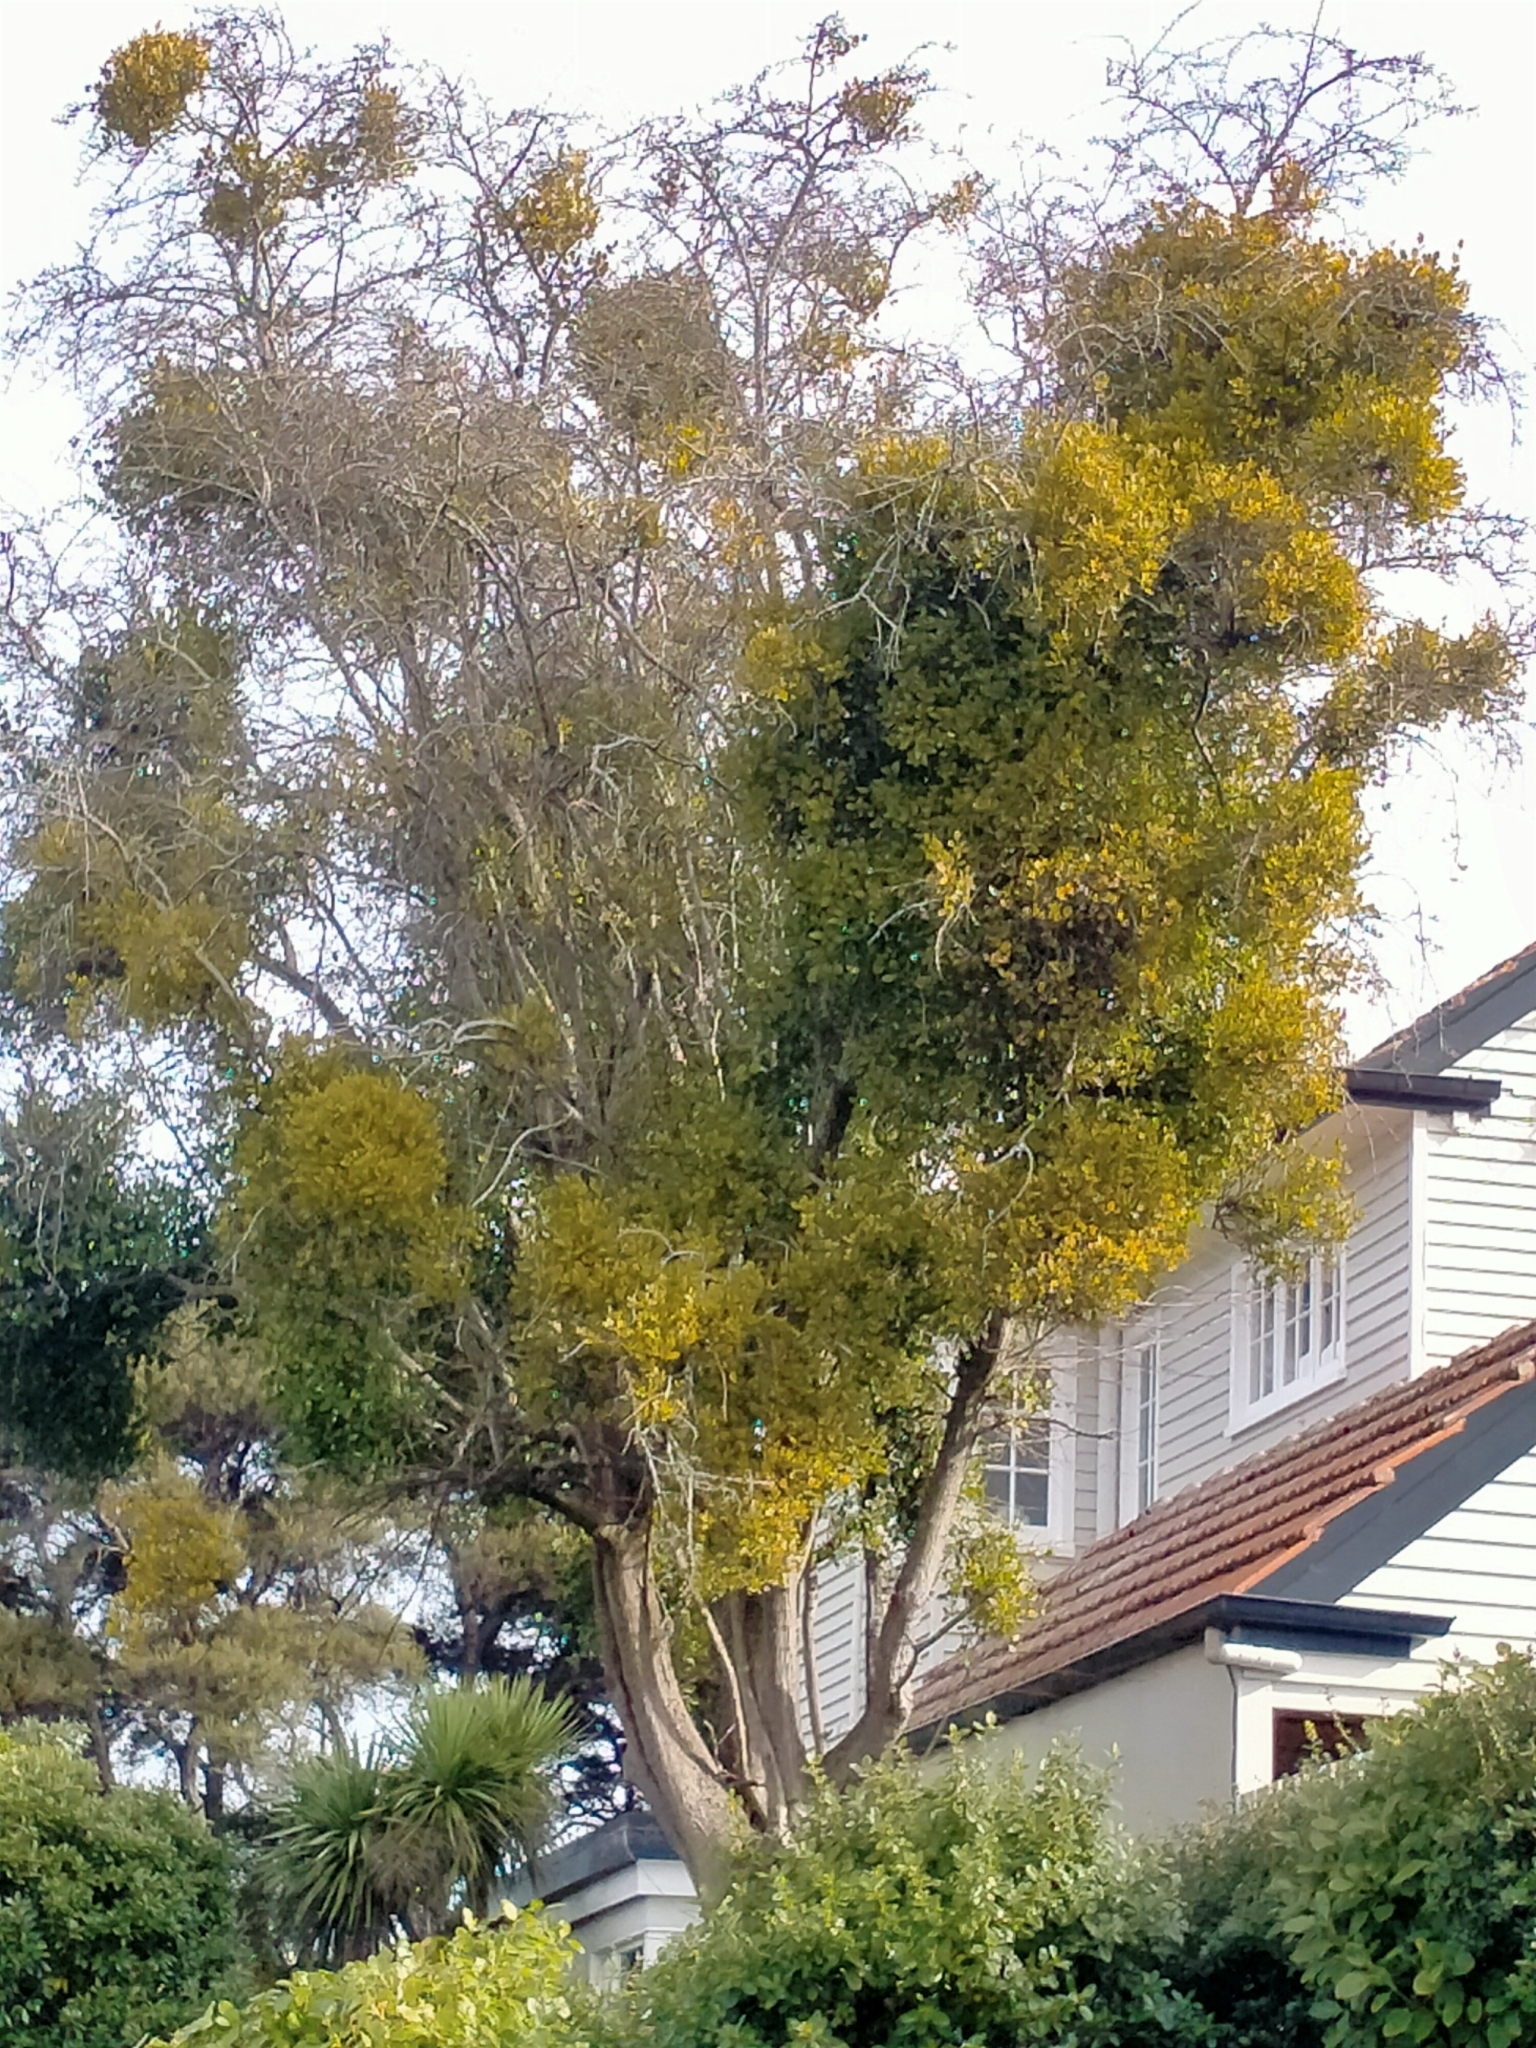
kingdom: Plantae
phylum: Tracheophyta
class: Magnoliopsida
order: Santalales
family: Loranthaceae
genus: Ileostylus
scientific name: Ileostylus micranthus
